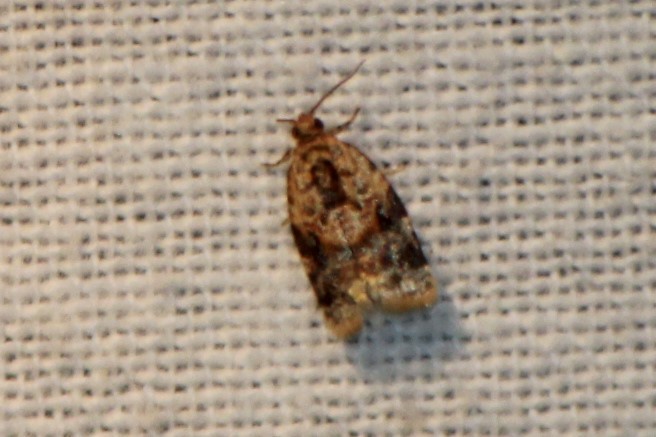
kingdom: Animalia
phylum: Arthropoda
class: Insecta
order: Lepidoptera
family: Tortricidae
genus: Argyrotaenia
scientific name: Argyrotaenia velutinana
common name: Red-banded leafroller moth
